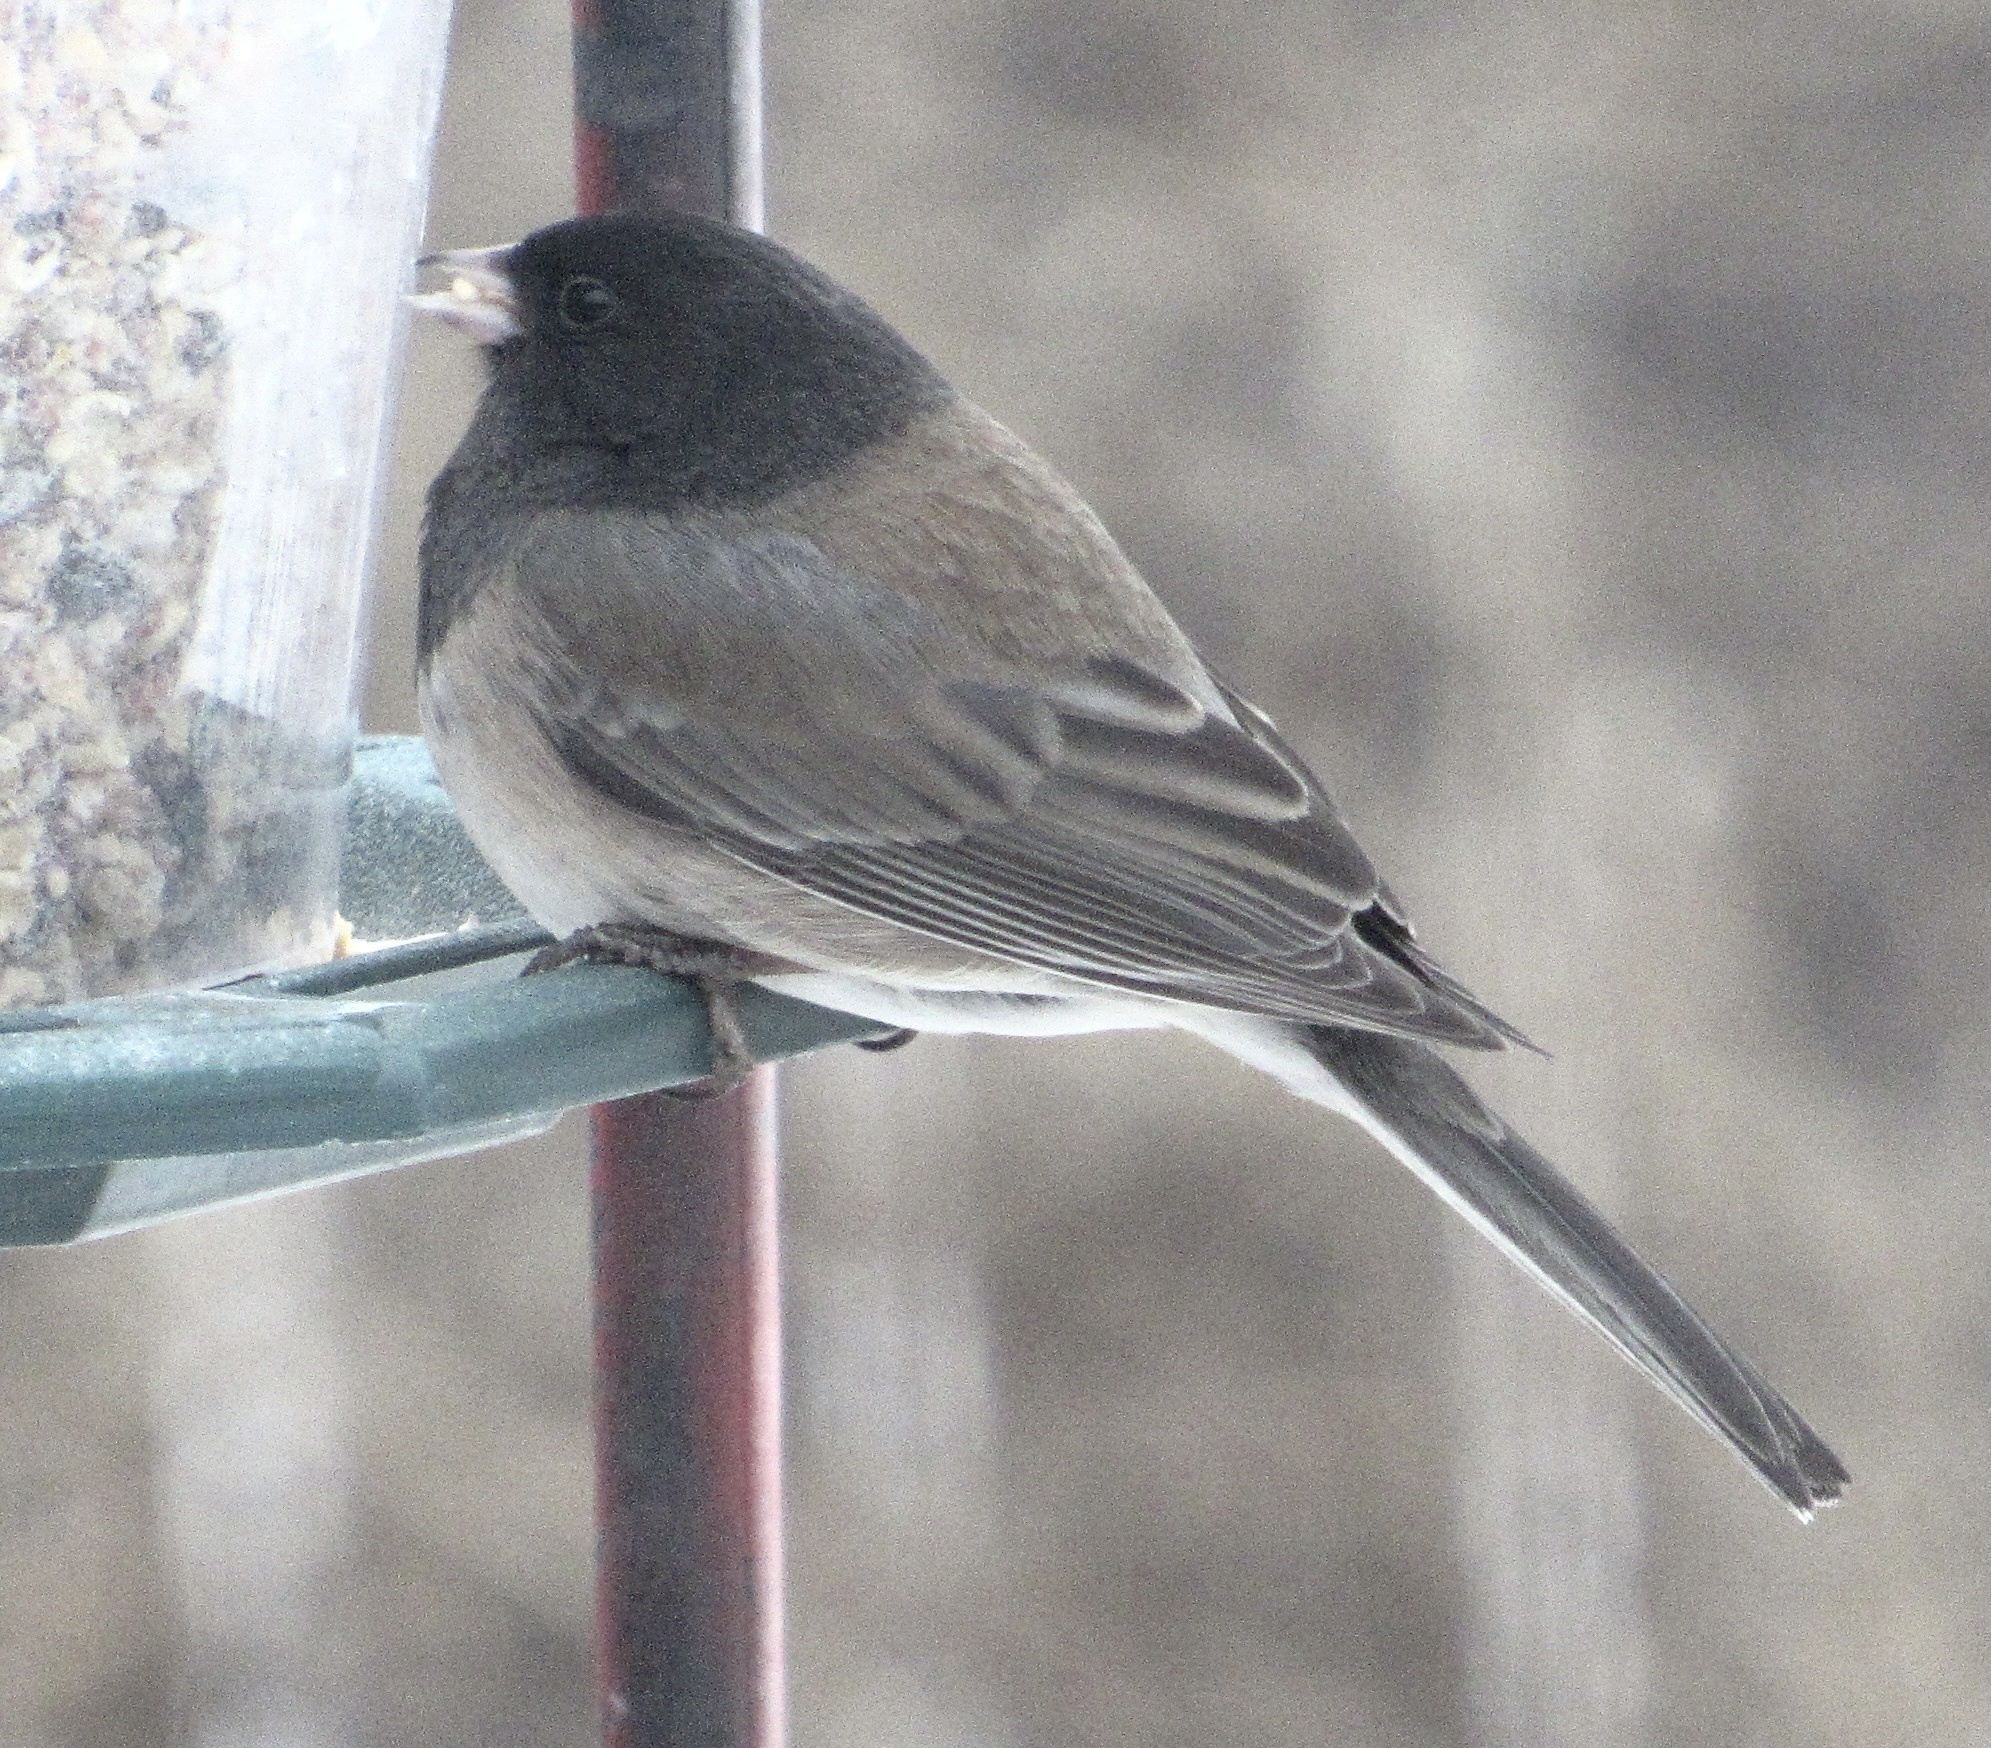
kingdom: Animalia
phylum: Chordata
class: Aves
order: Passeriformes
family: Passerellidae
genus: Junco
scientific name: Junco hyemalis
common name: Dark-eyed junco
